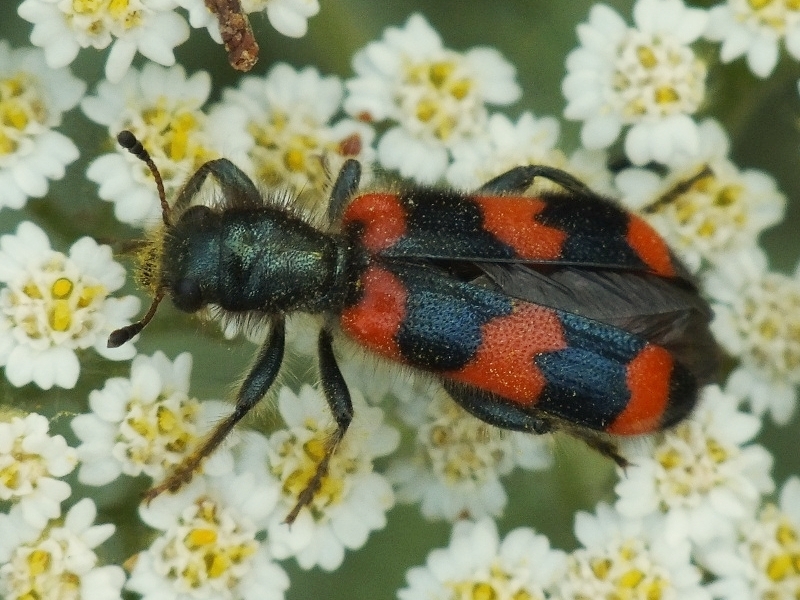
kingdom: Animalia
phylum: Arthropoda
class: Insecta
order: Coleoptera
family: Cleridae
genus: Trichodes
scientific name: Trichodes apiarius
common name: Bee-eating beetle
